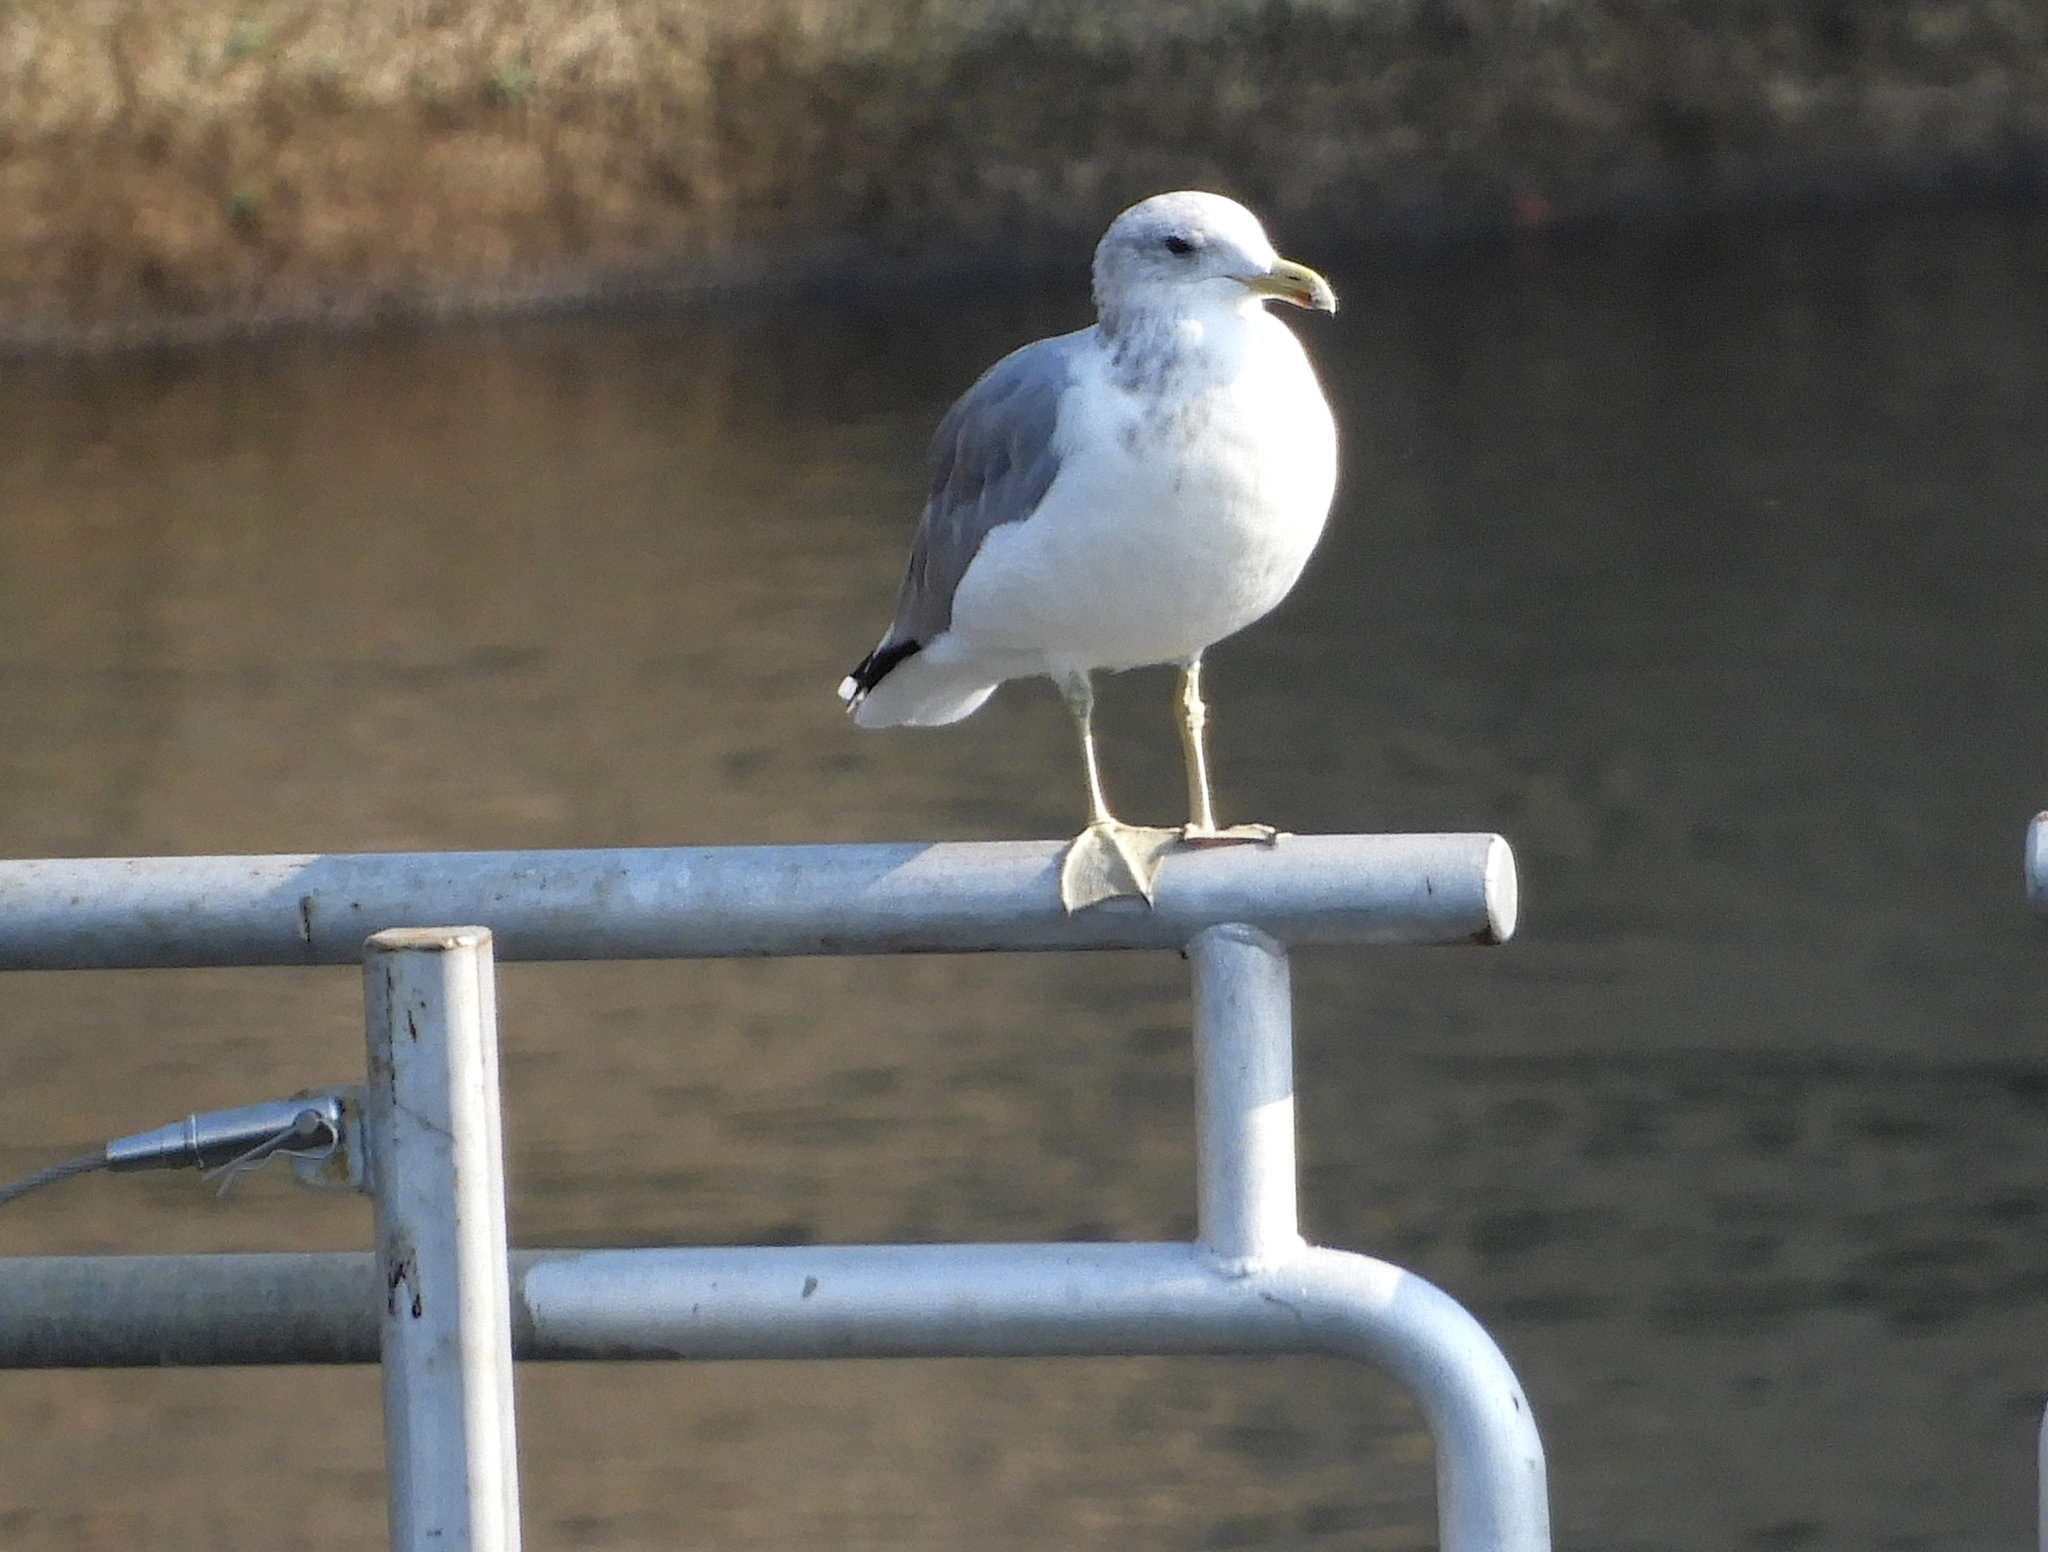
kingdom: Animalia
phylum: Chordata
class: Aves
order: Charadriiformes
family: Laridae
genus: Larus
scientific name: Larus californicus
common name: California gull
